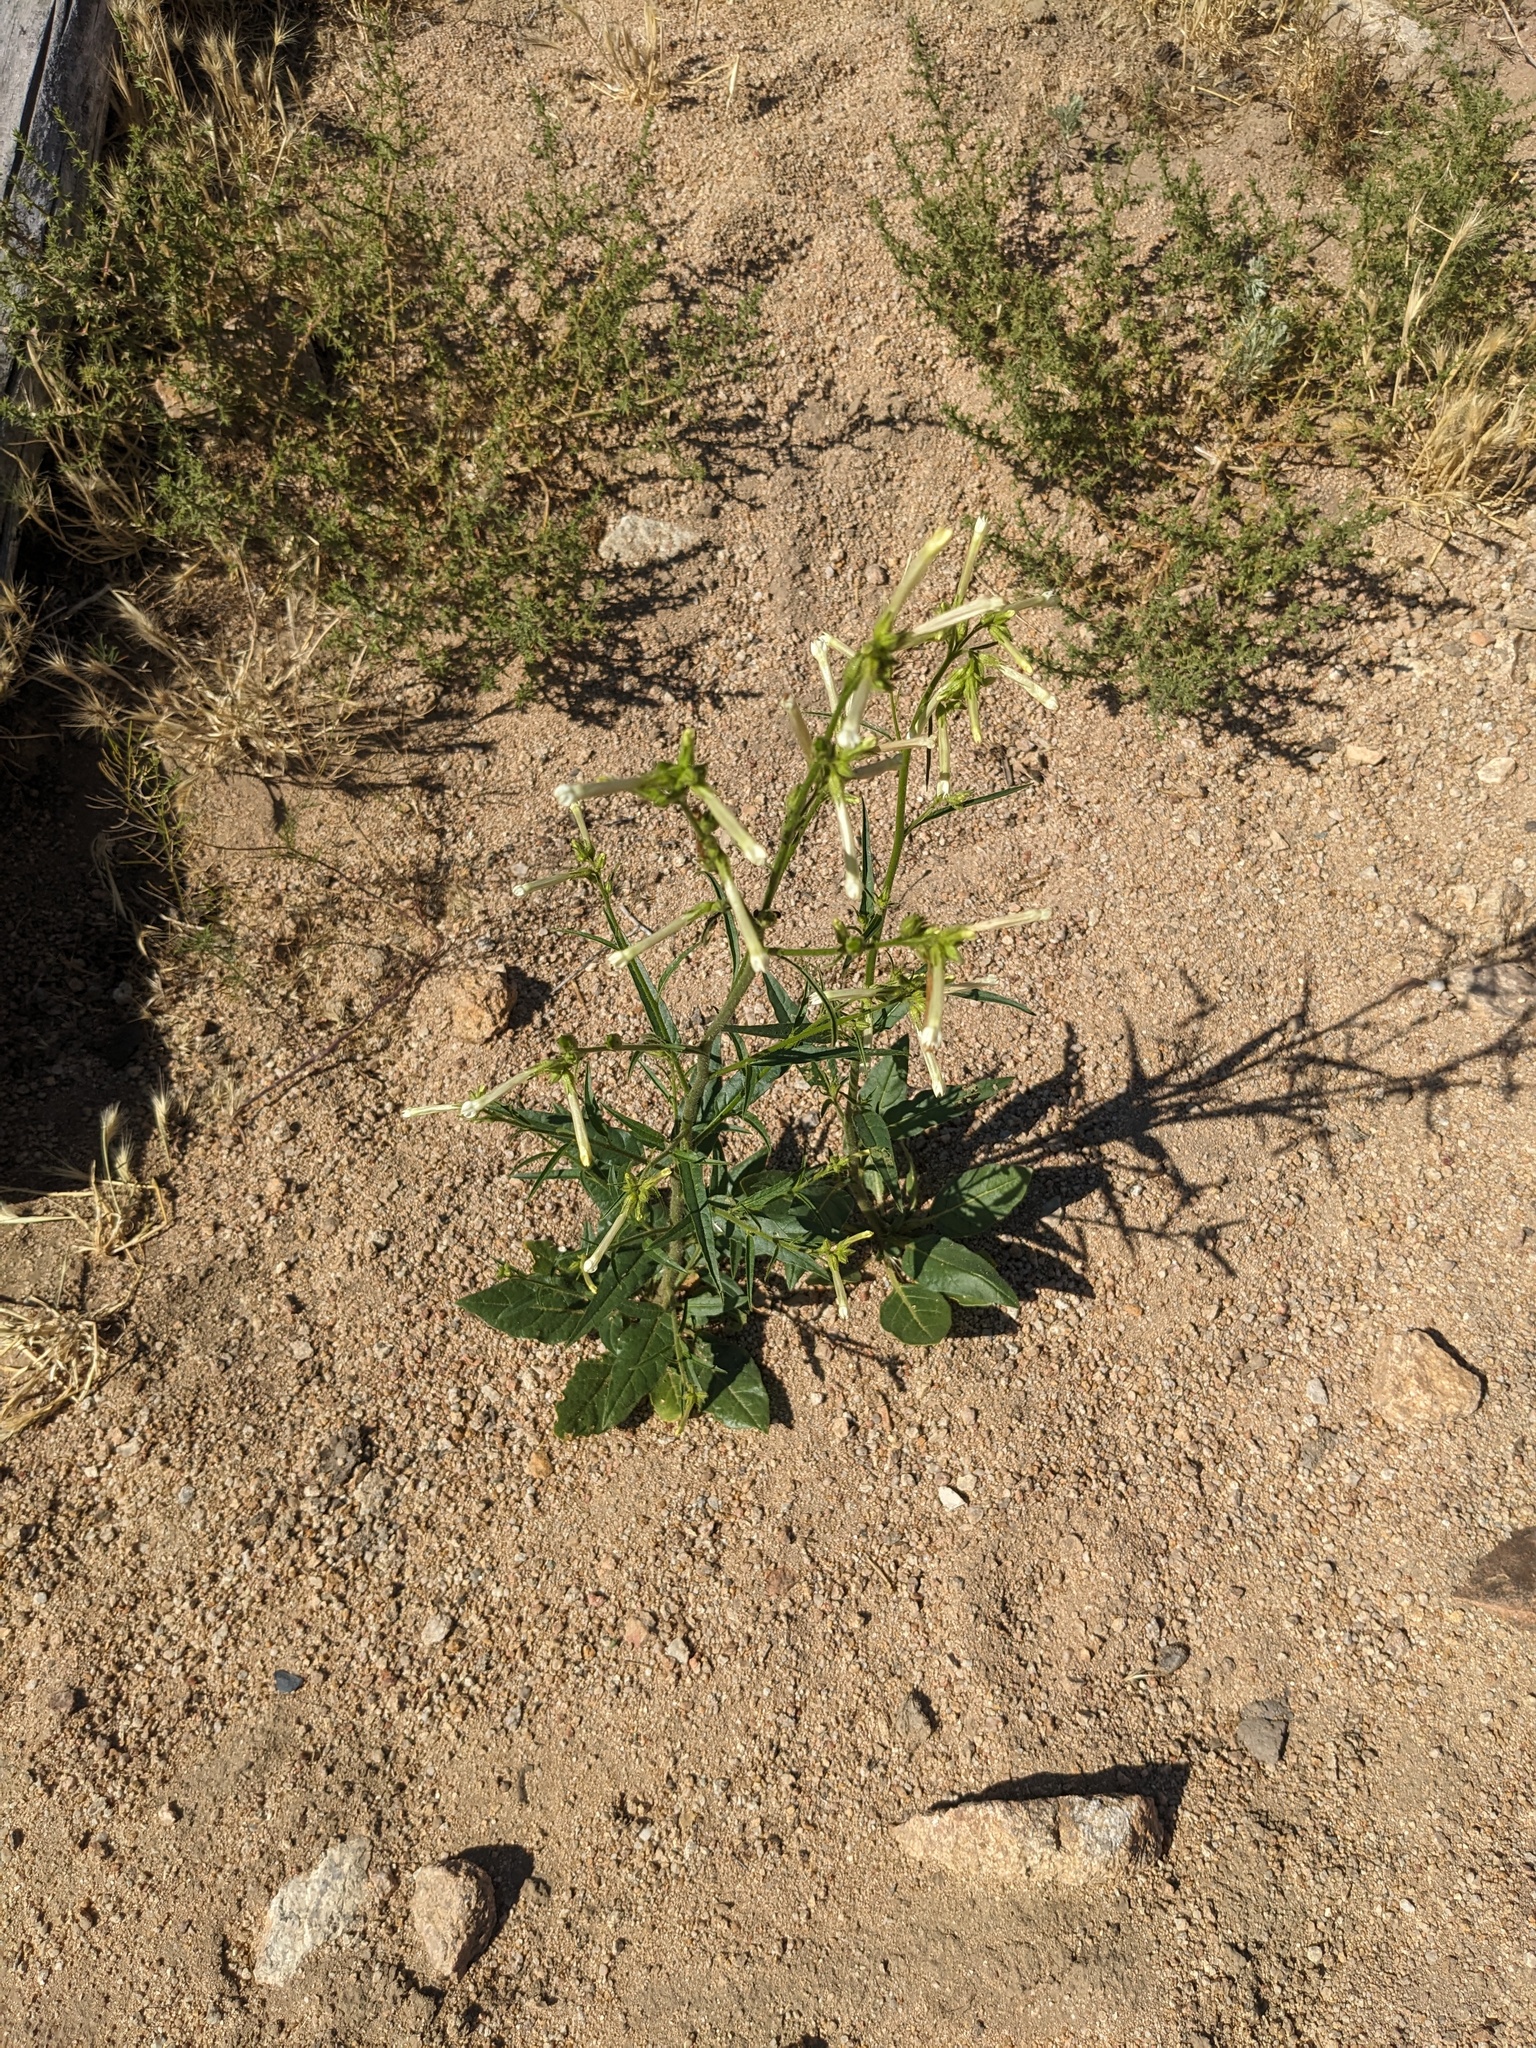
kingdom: Plantae
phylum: Tracheophyta
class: Magnoliopsida
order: Solanales
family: Solanaceae
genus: Nicotiana
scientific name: Nicotiana attenuata
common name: Coyote tobacco
